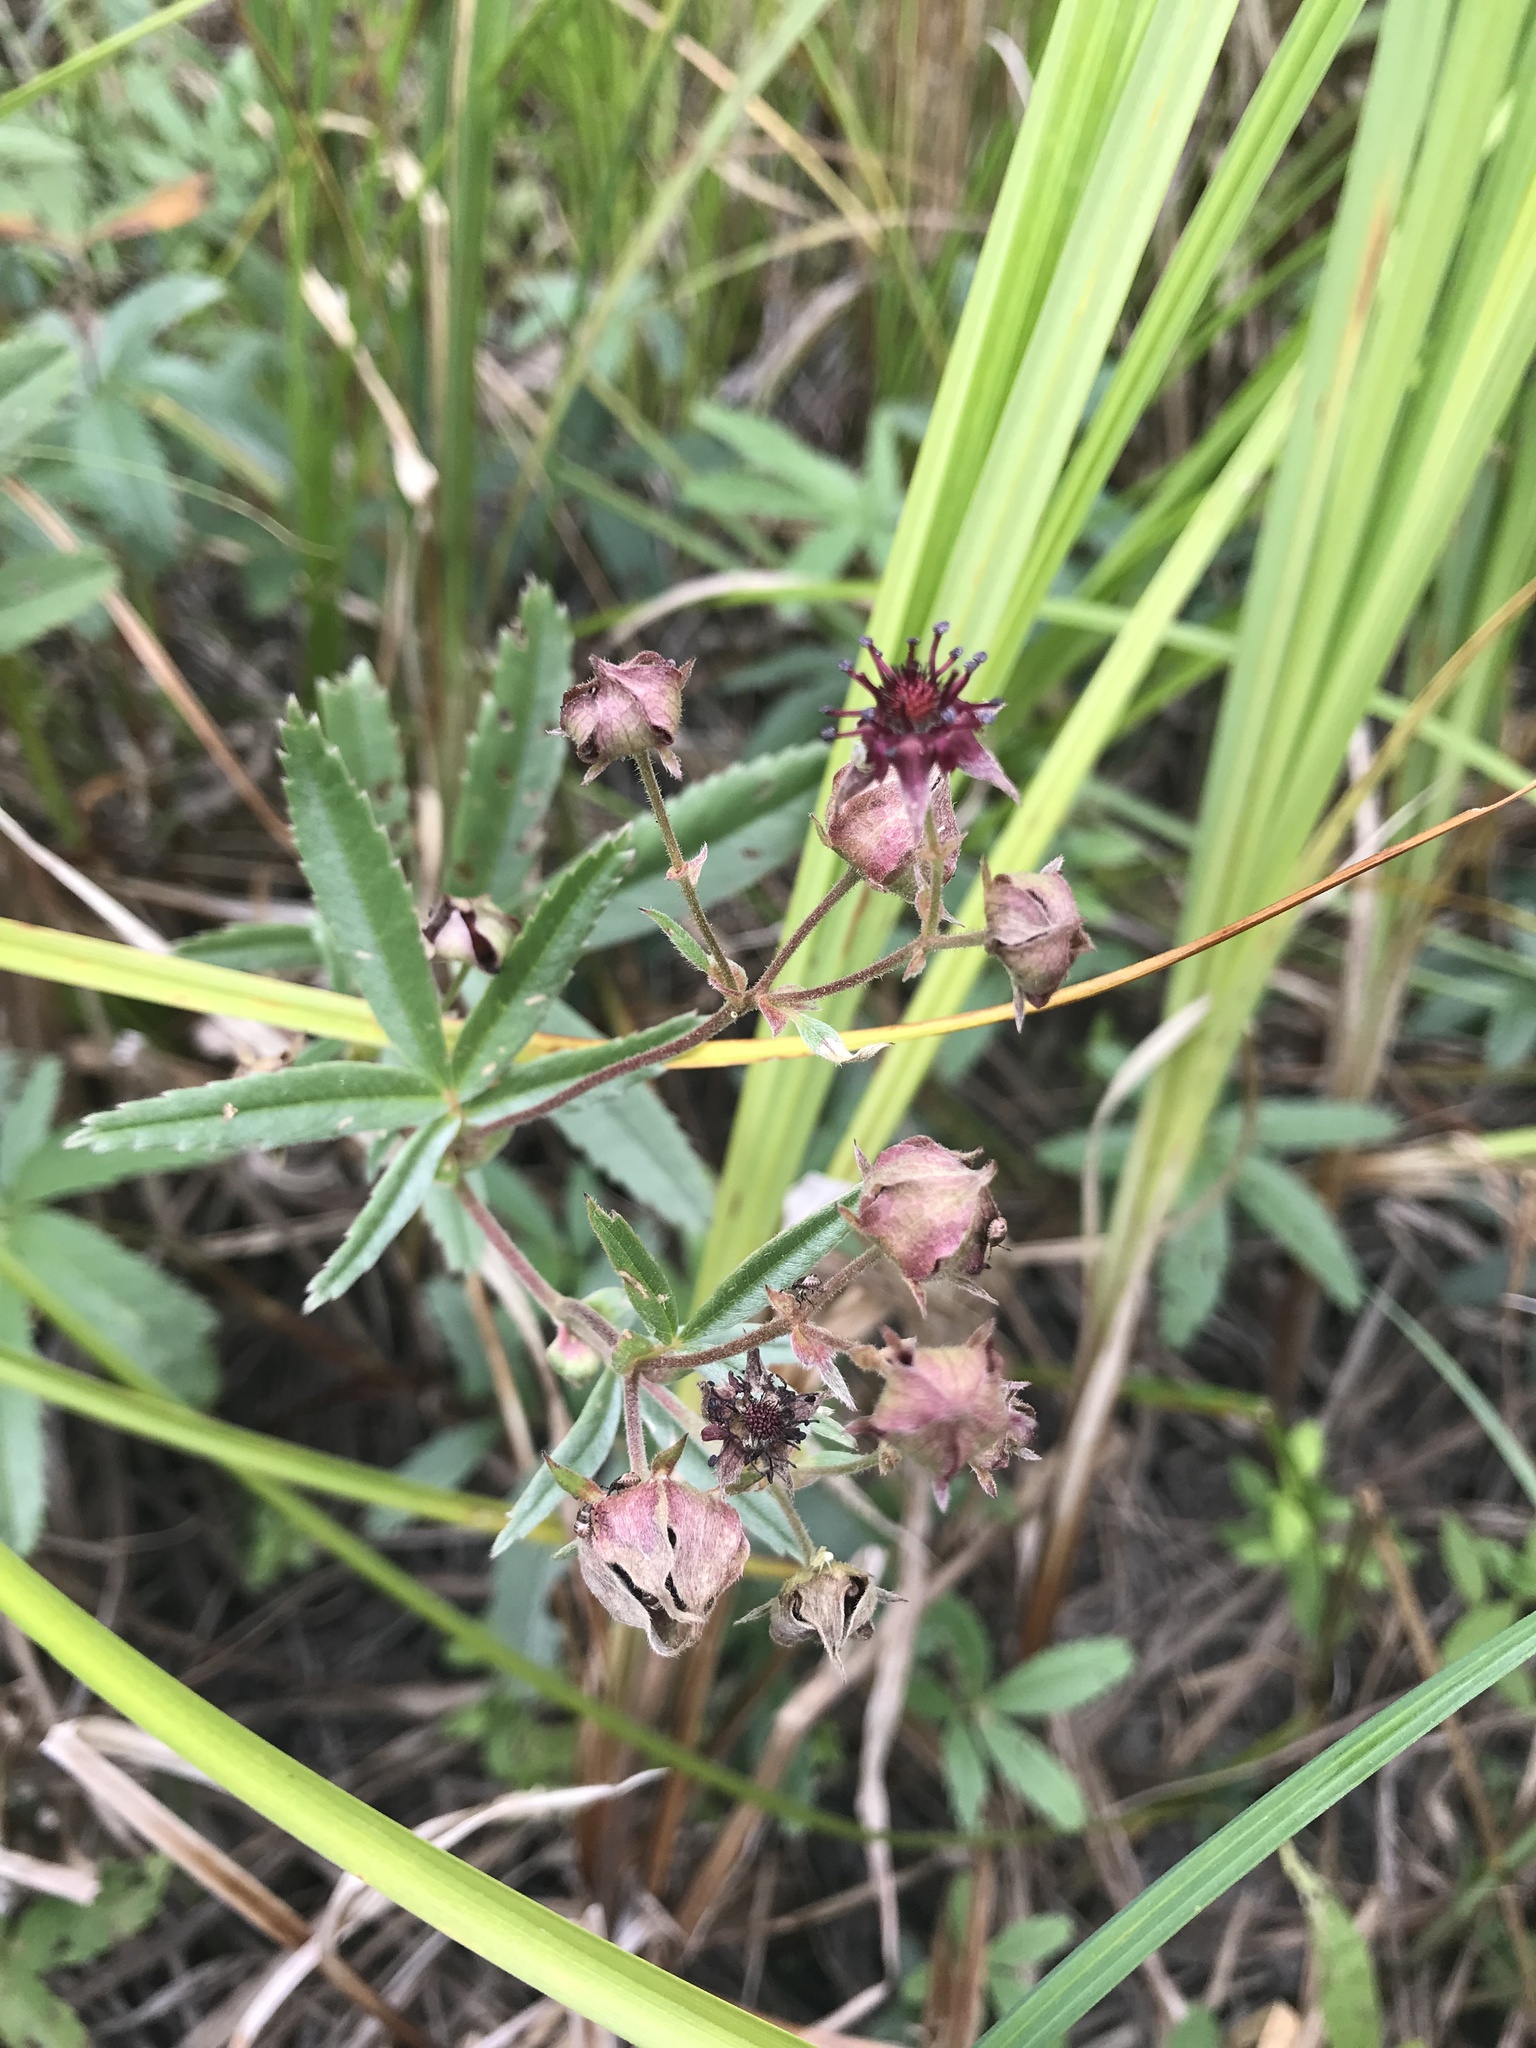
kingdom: Plantae
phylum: Tracheophyta
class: Magnoliopsida
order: Rosales
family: Rosaceae
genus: Comarum
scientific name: Comarum palustre
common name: Marsh cinquefoil
